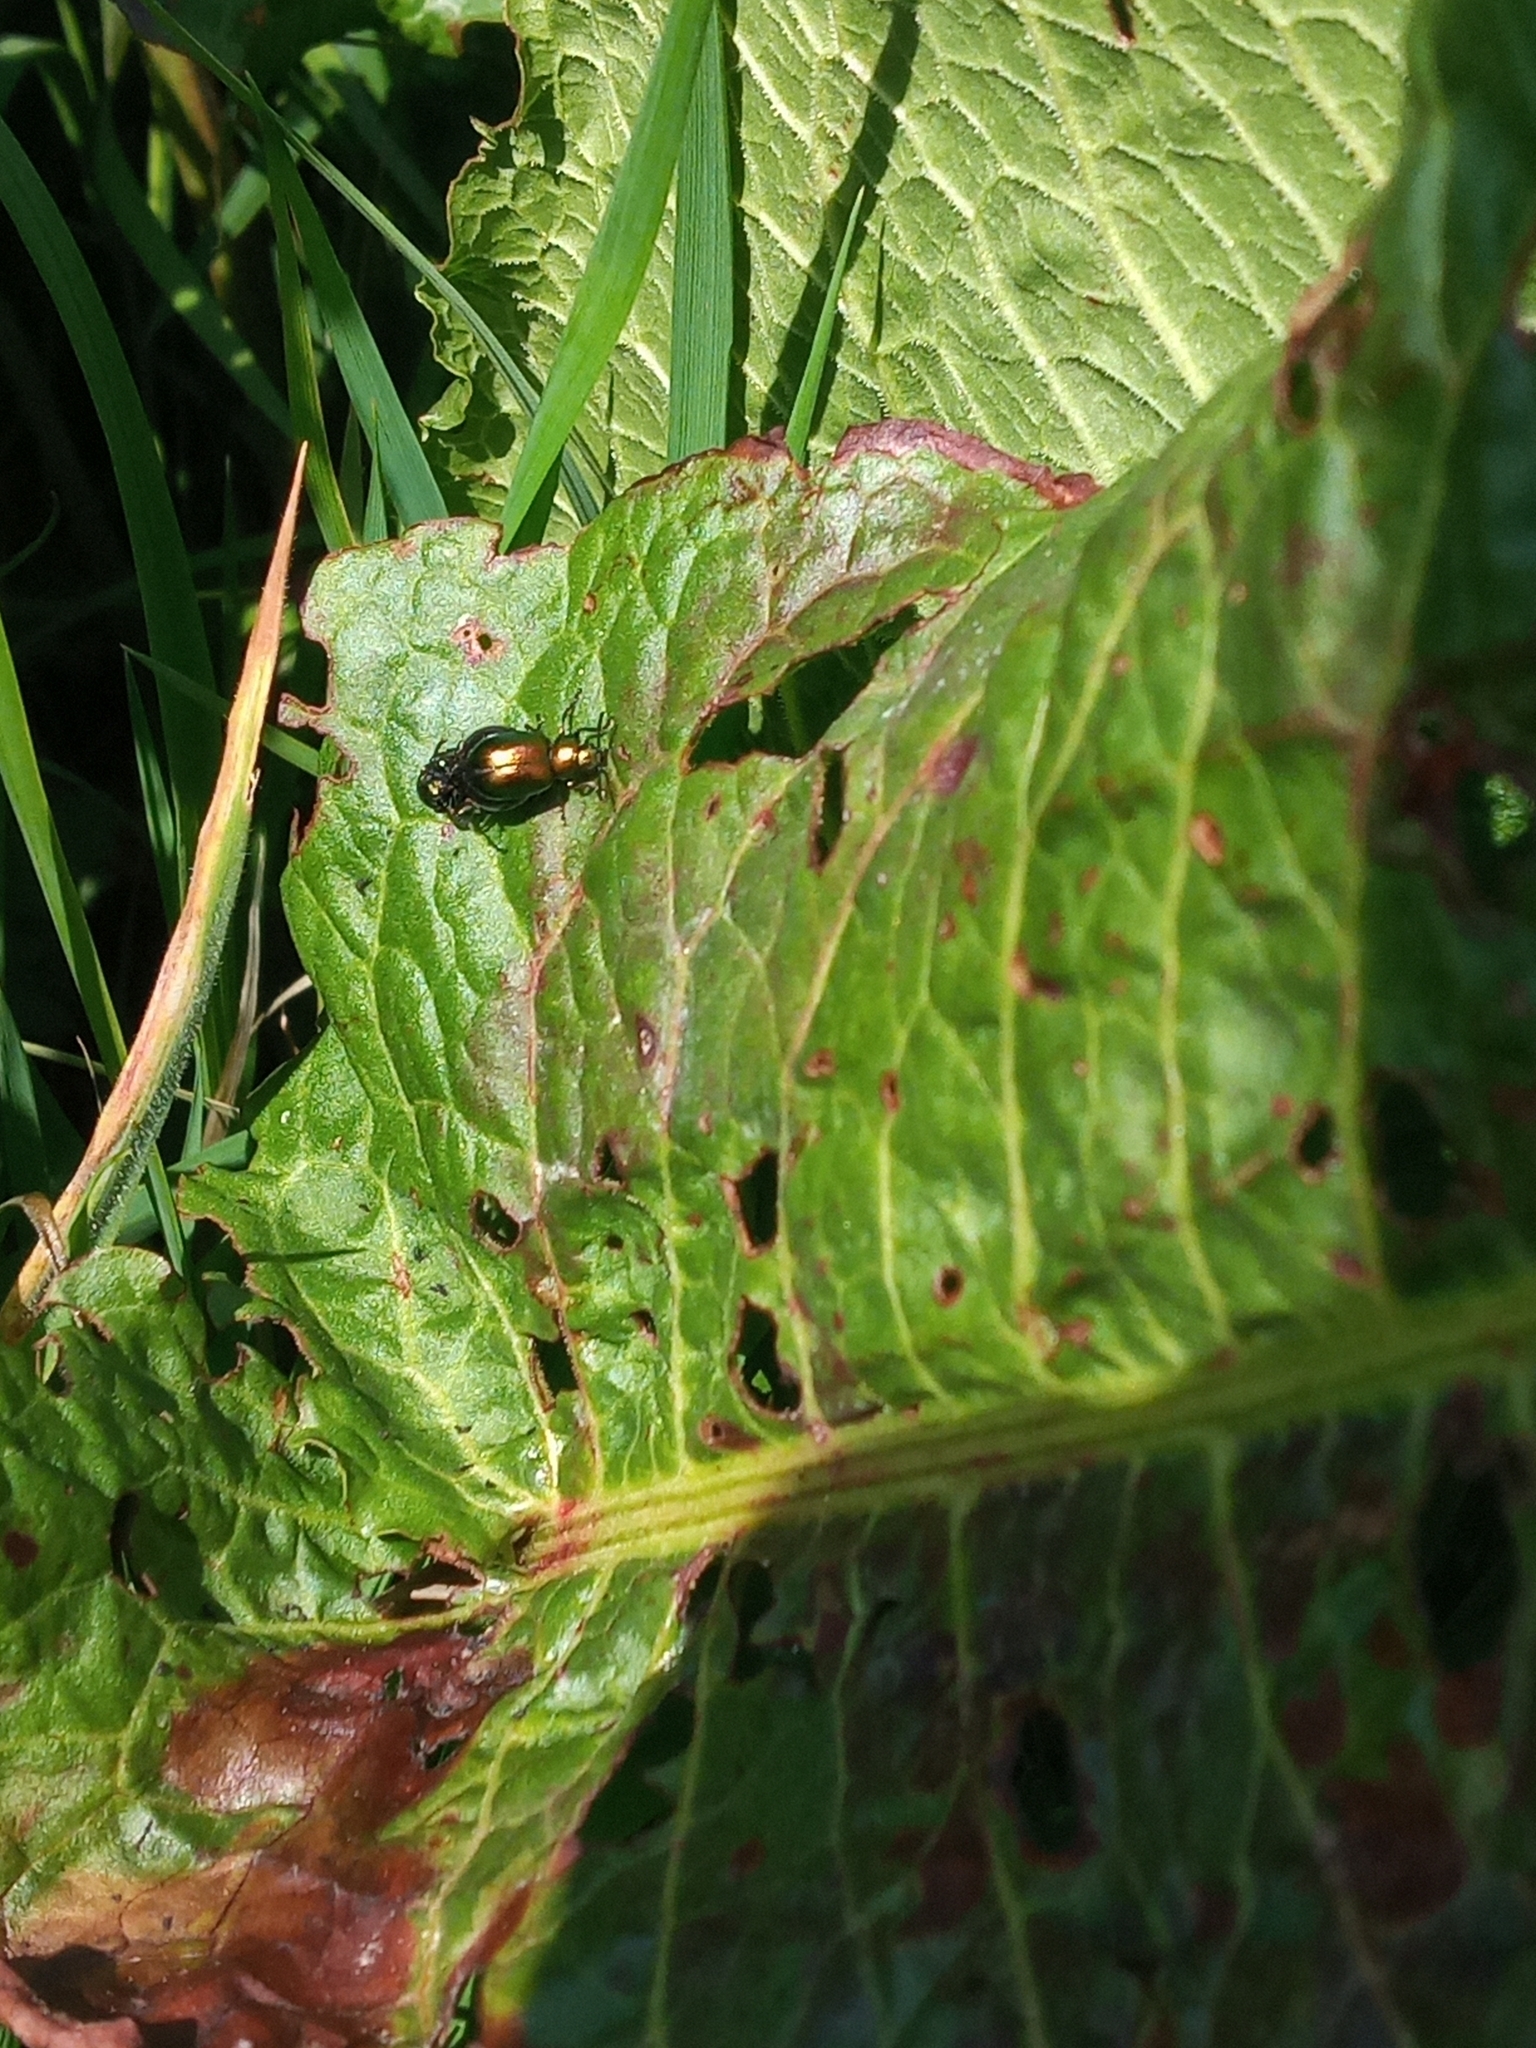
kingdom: Animalia
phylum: Arthropoda
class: Insecta
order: Coleoptera
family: Chrysomelidae
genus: Gastrophysa
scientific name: Gastrophysa viridula
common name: Green dock beetle
